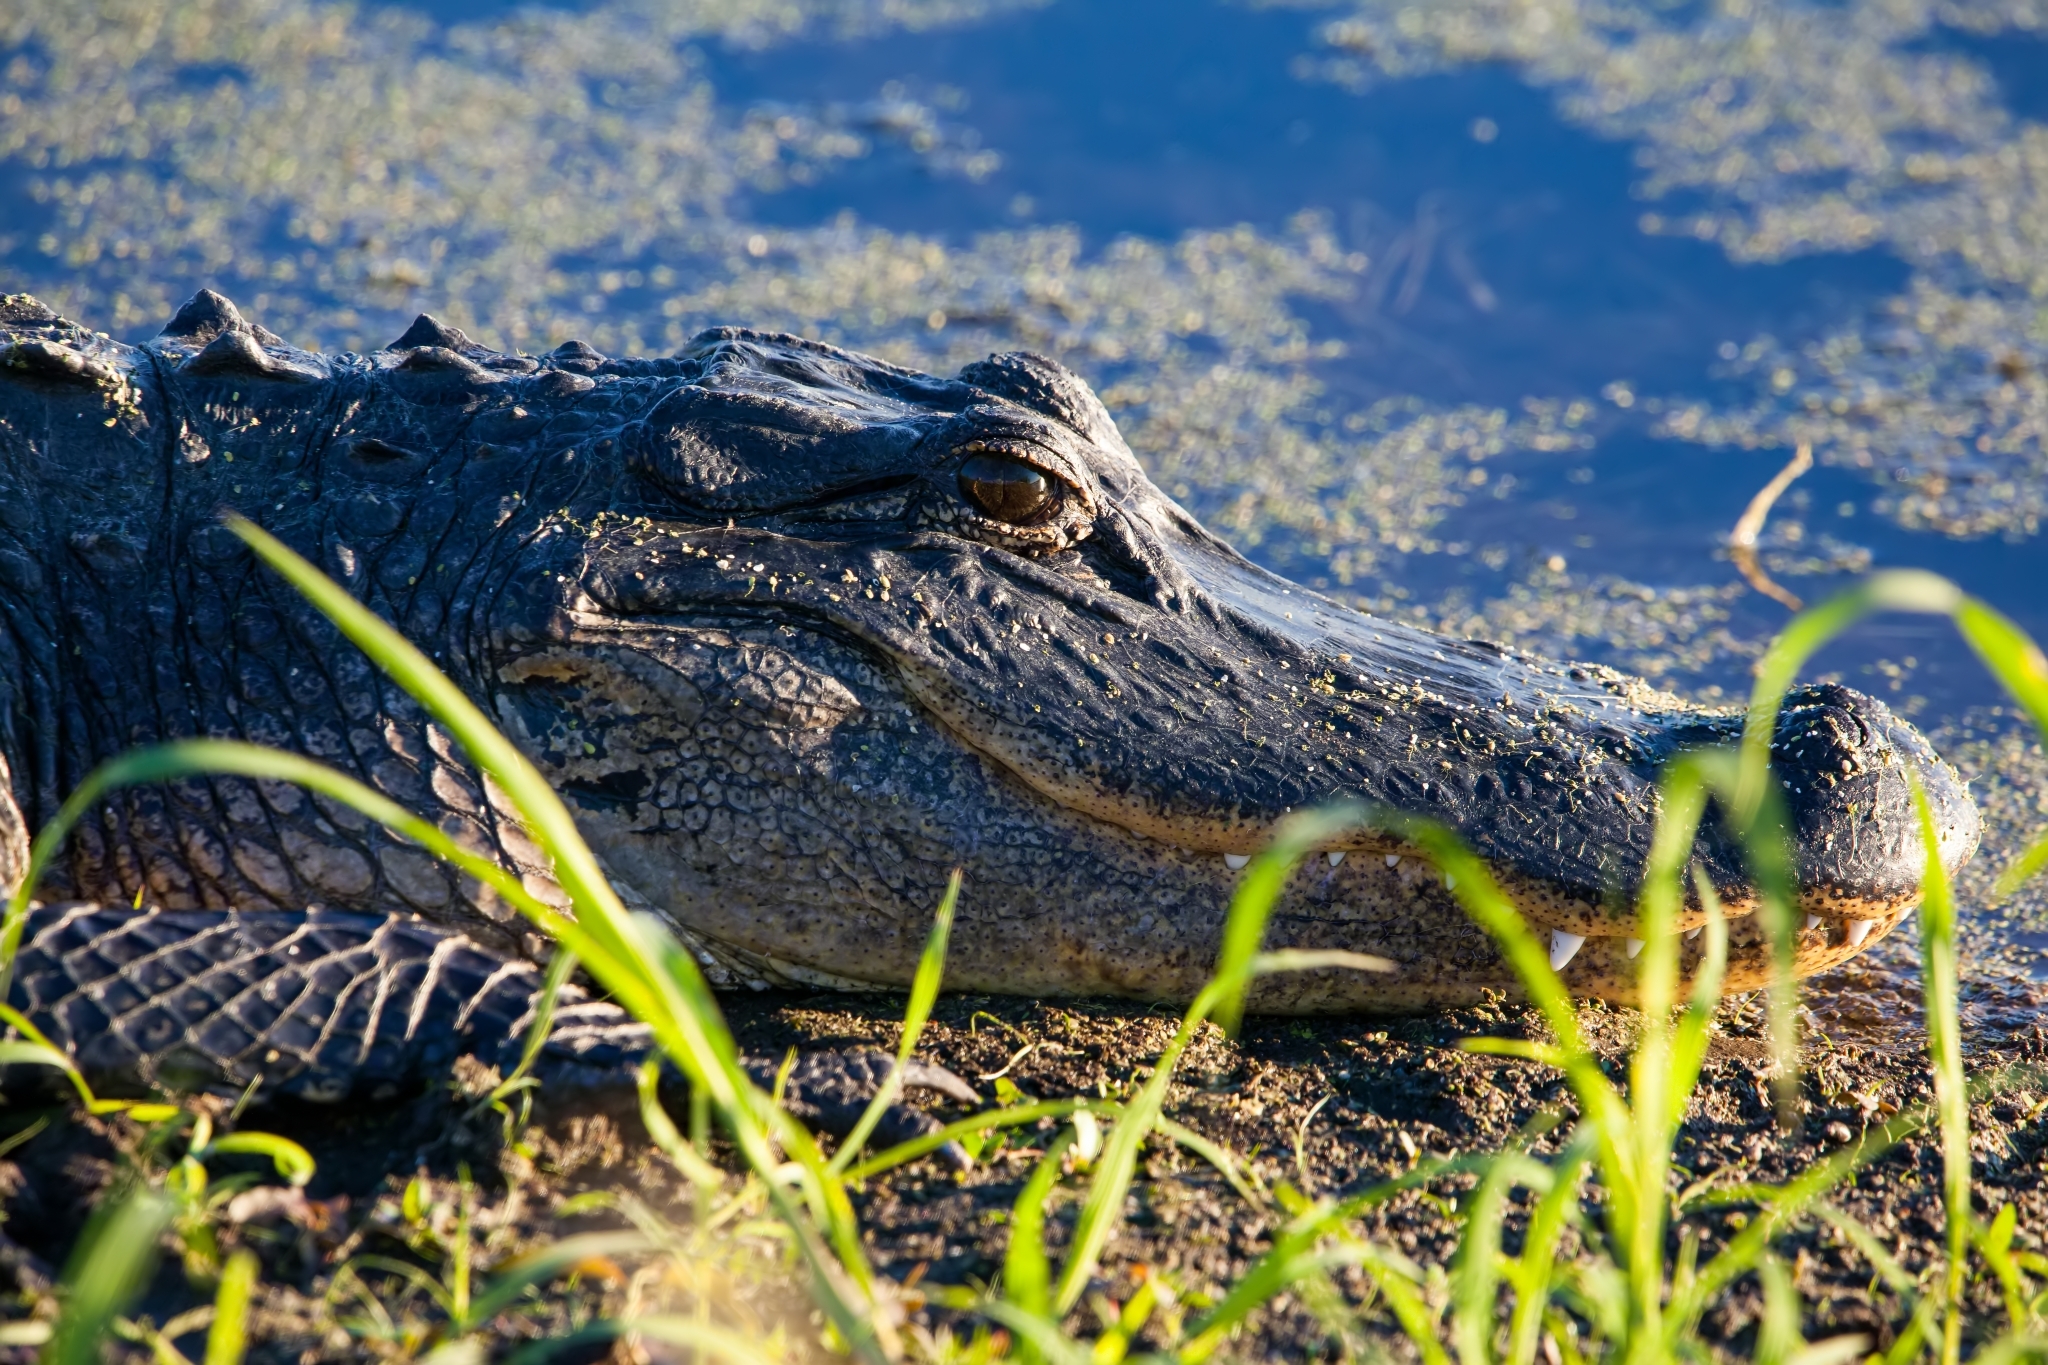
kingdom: Animalia
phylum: Chordata
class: Crocodylia
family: Alligatoridae
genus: Alligator
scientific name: Alligator mississippiensis
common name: American alligator
